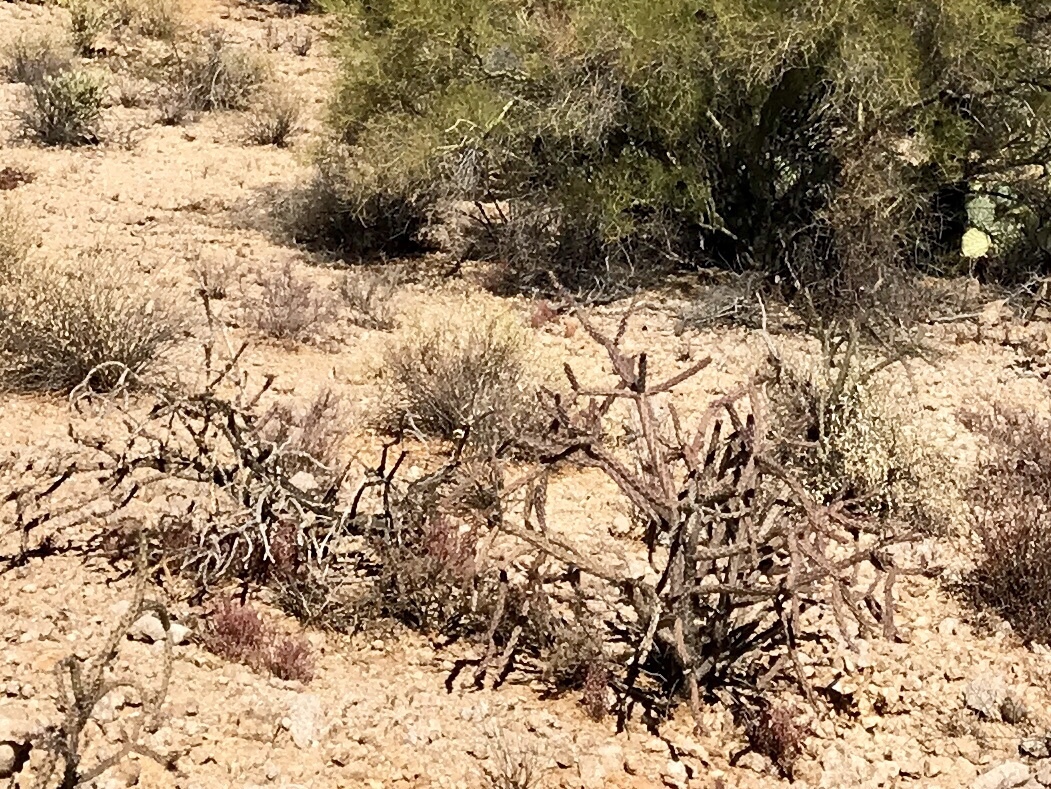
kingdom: Plantae
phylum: Tracheophyta
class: Magnoliopsida
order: Caryophyllales
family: Cactaceae
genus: Cylindropuntia
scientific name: Cylindropuntia thurberi
